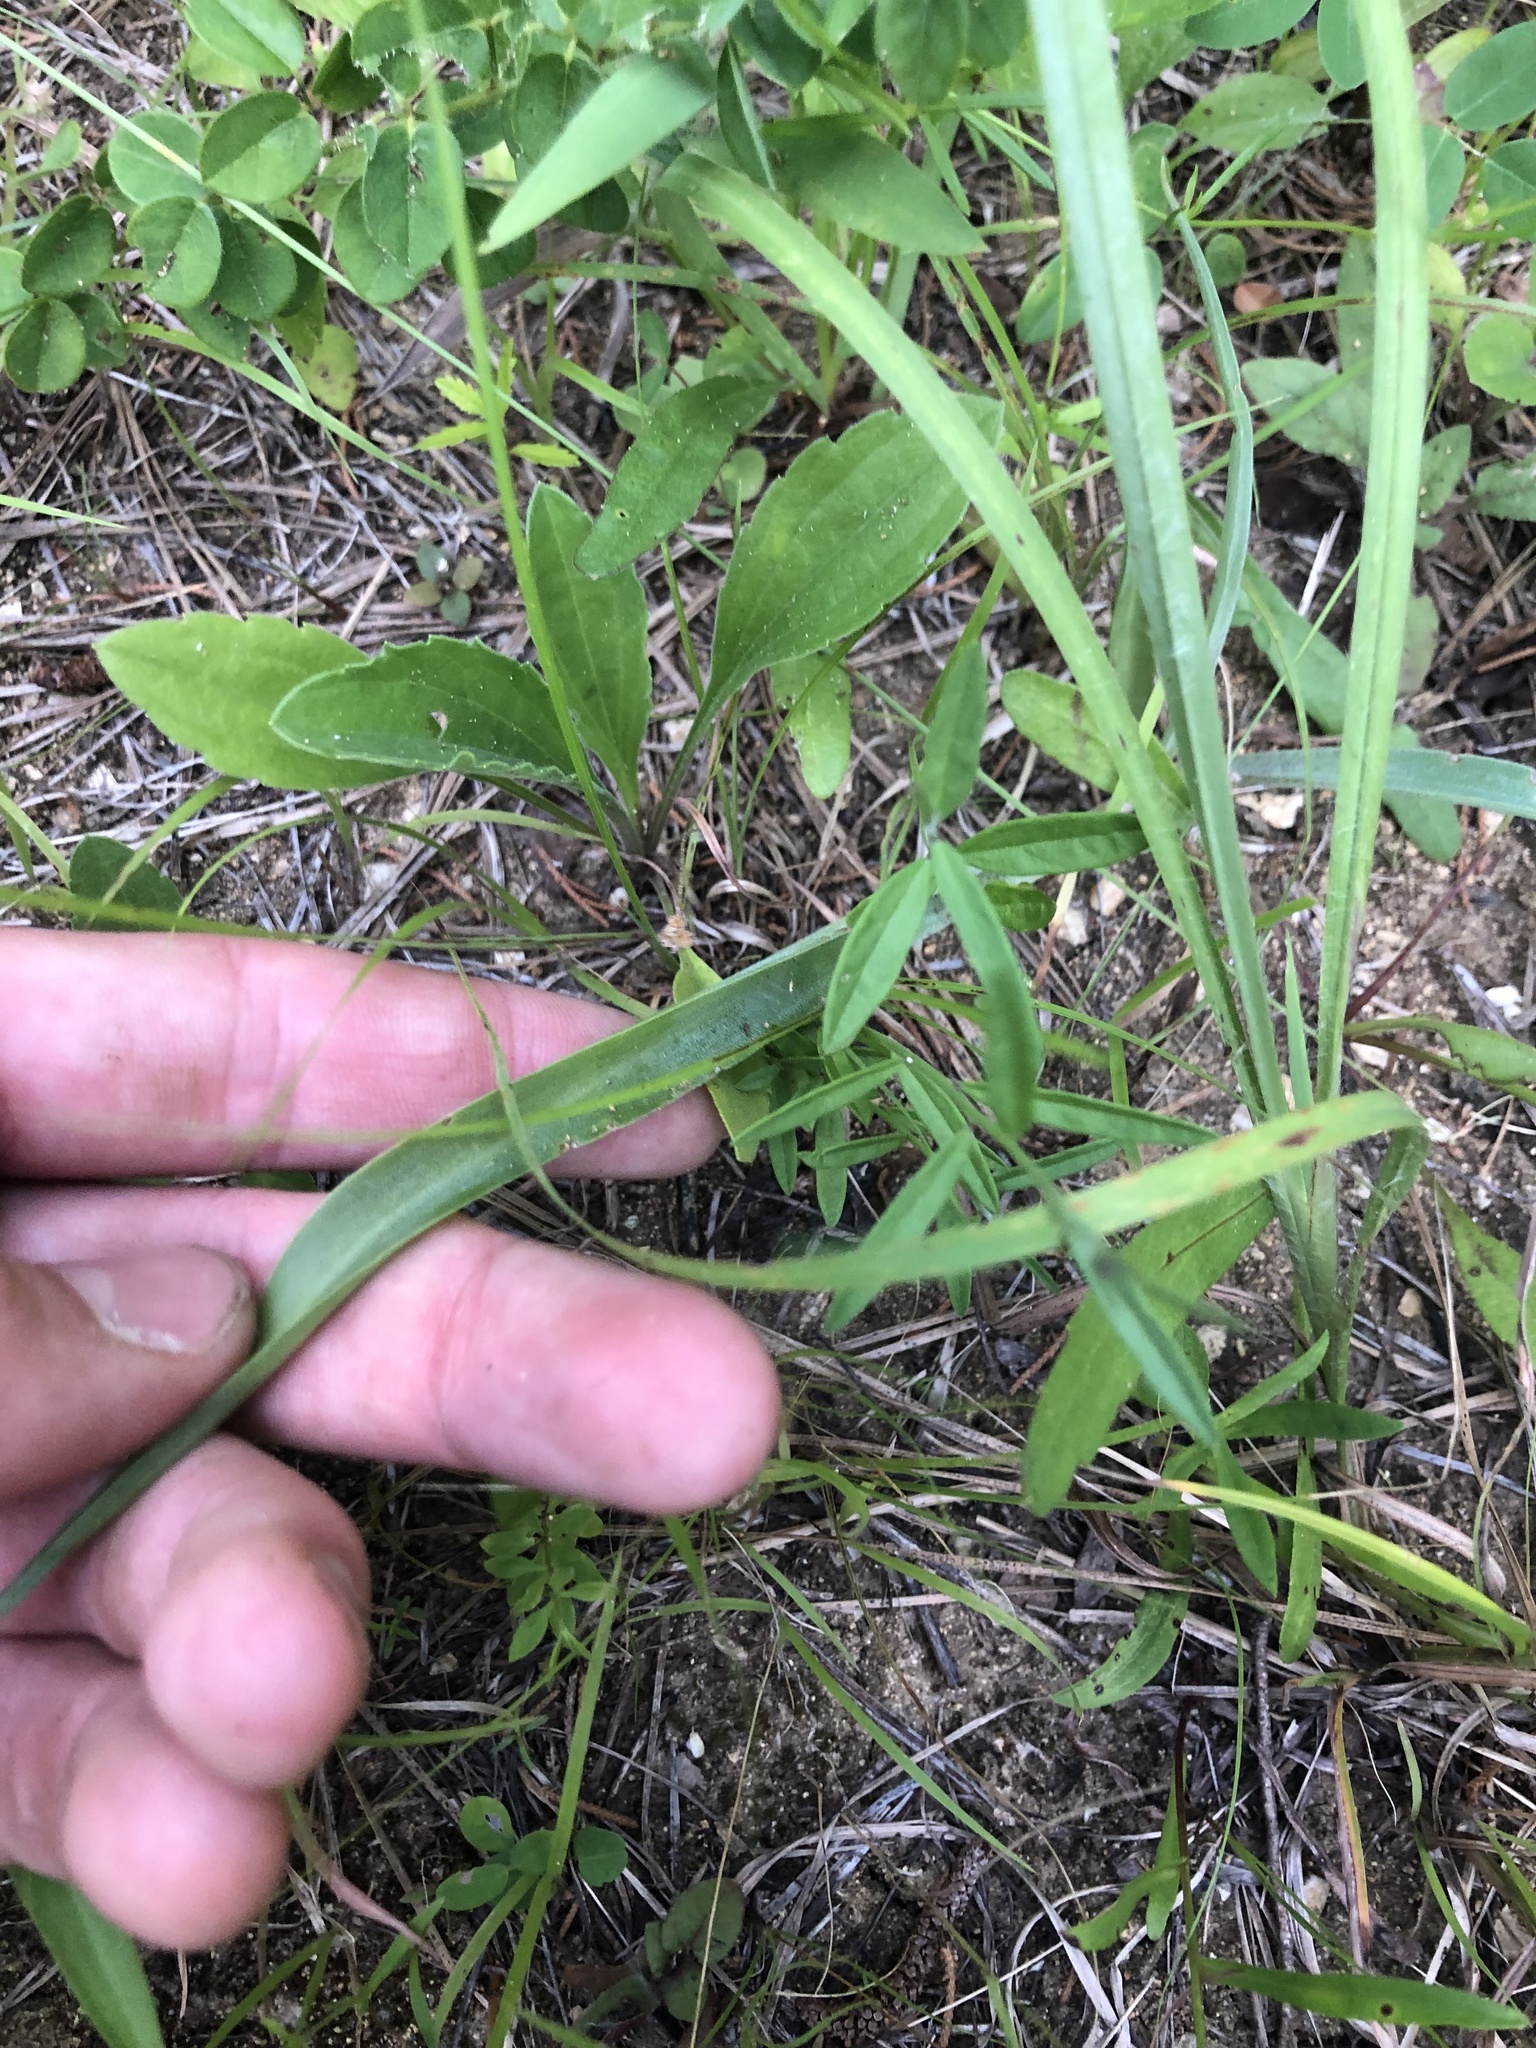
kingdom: Plantae
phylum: Tracheophyta
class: Liliopsida
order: Asparagales
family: Asparagaceae
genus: Agave
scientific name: Agave virginica
